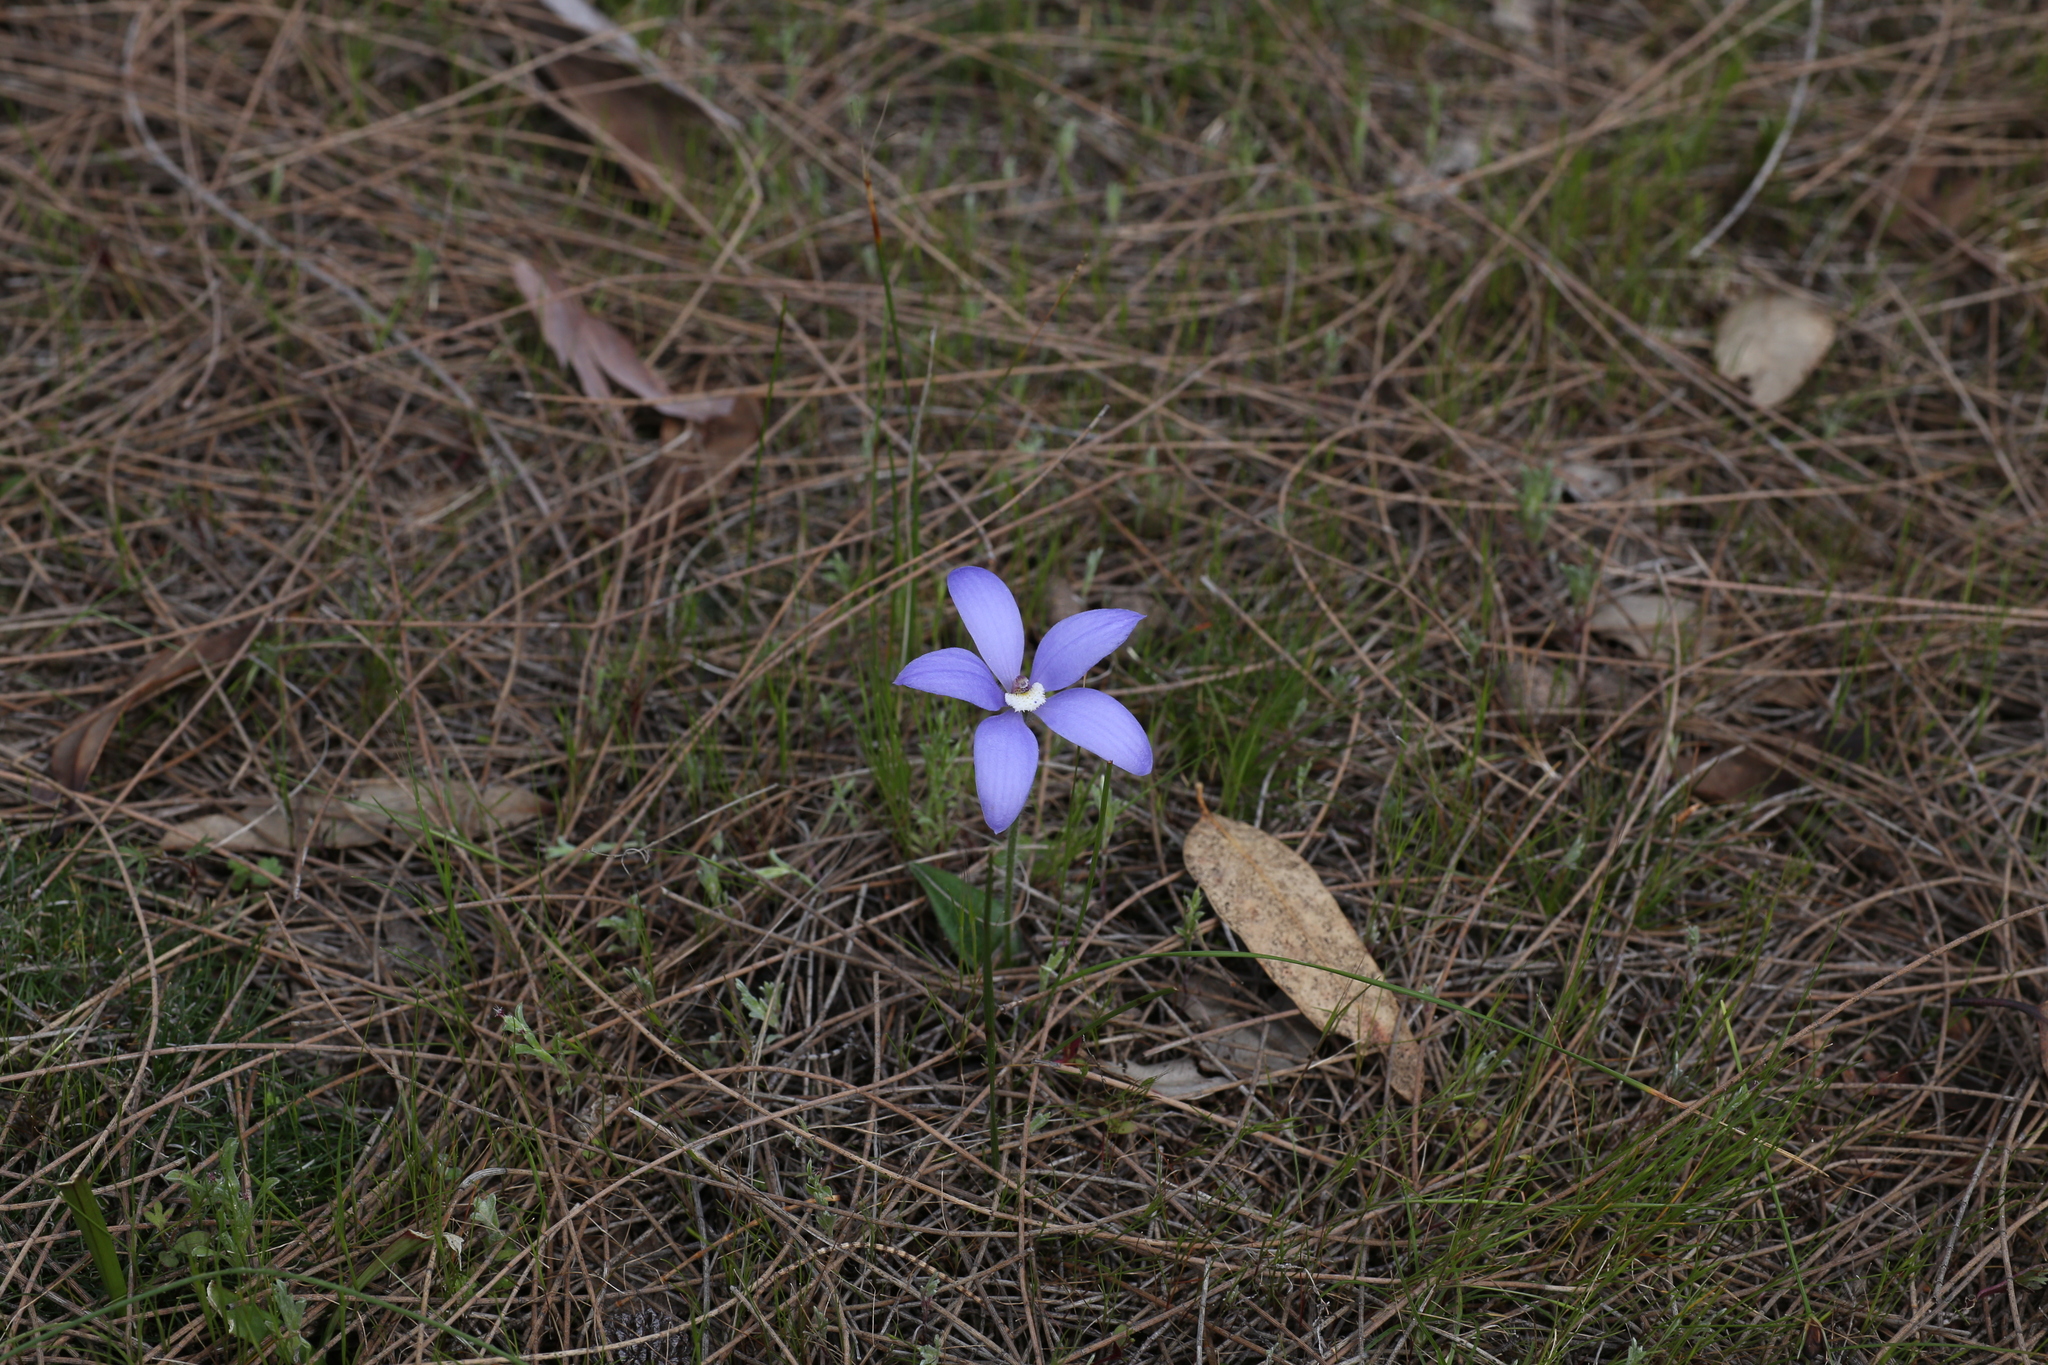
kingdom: Plantae
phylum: Tracheophyta
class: Liliopsida
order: Asparagales
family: Orchidaceae
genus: Caladenia
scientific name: Caladenia gemmata
